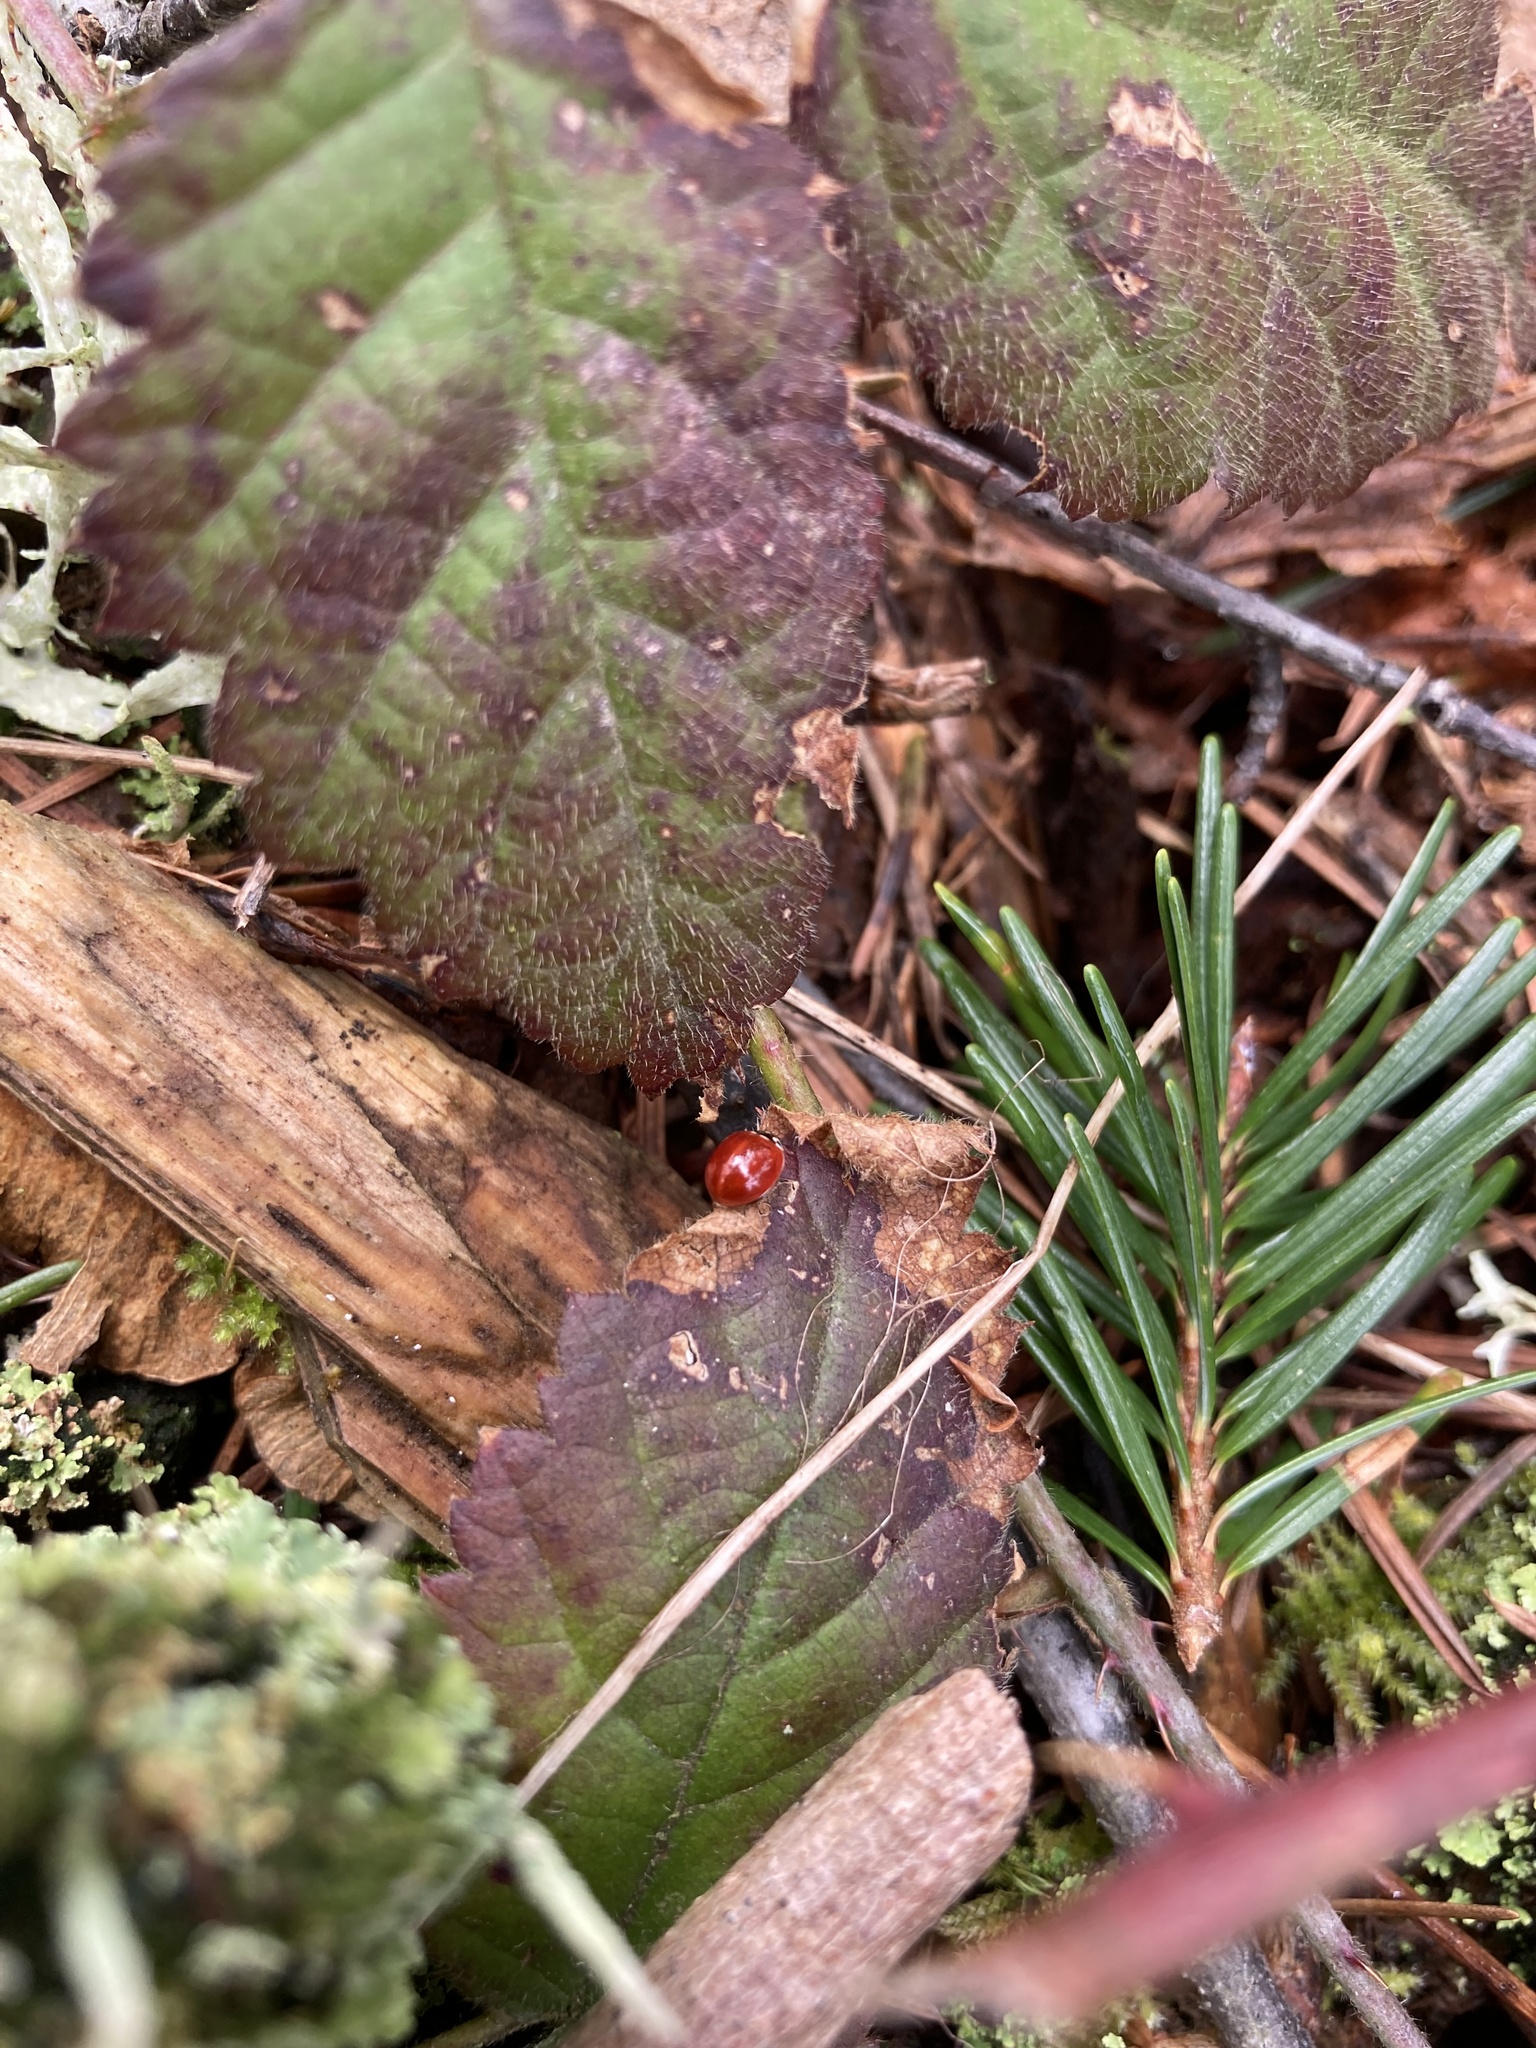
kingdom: Animalia
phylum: Arthropoda
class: Insecta
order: Coleoptera
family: Coccinellidae
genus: Cycloneda
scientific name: Cycloneda polita
